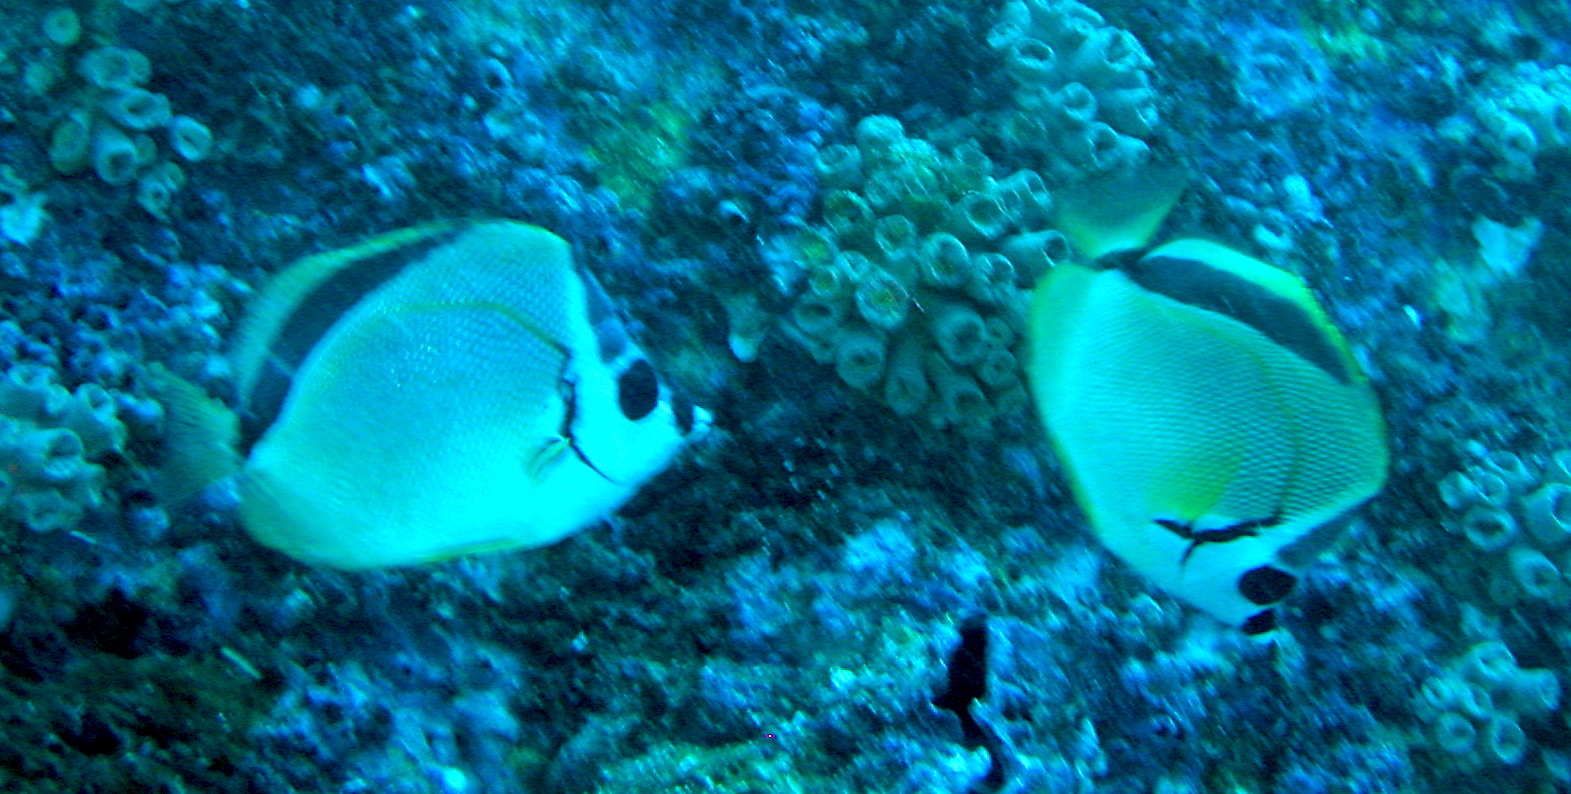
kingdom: Animalia
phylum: Chordata
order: Perciformes
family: Chaetodontidae
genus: Johnrandallia
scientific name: Johnrandallia nigrirostris
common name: Barberfish
